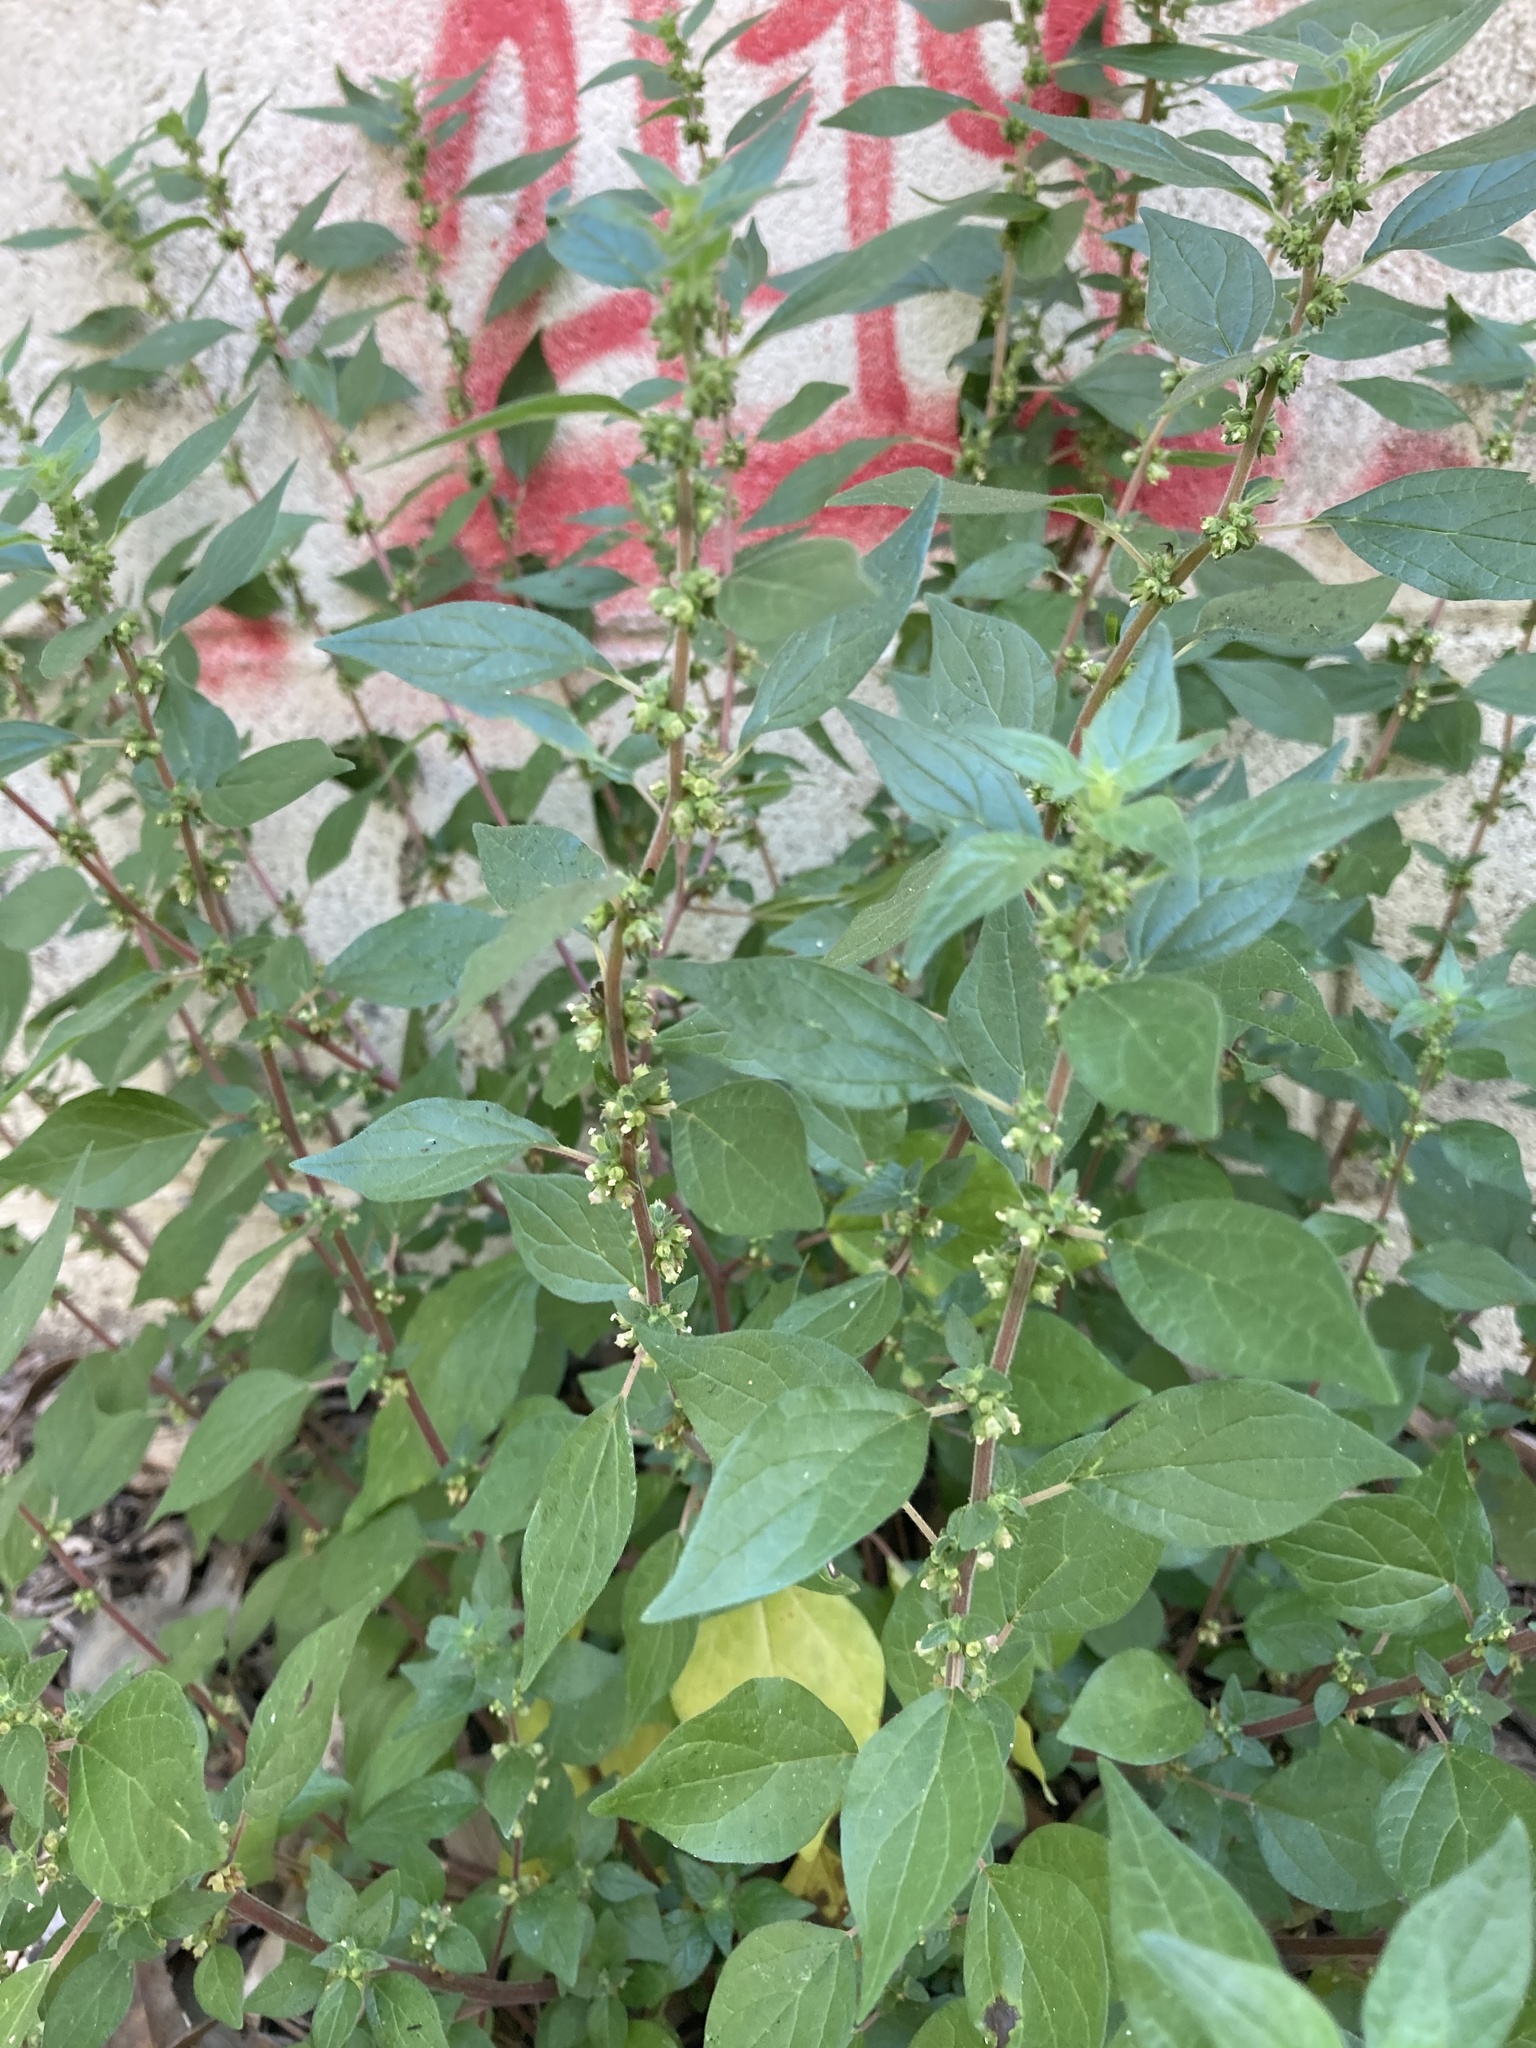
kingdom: Plantae
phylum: Tracheophyta
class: Magnoliopsida
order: Rosales
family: Urticaceae
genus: Parietaria
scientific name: Parietaria judaica
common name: Pellitory-of-the-wall
